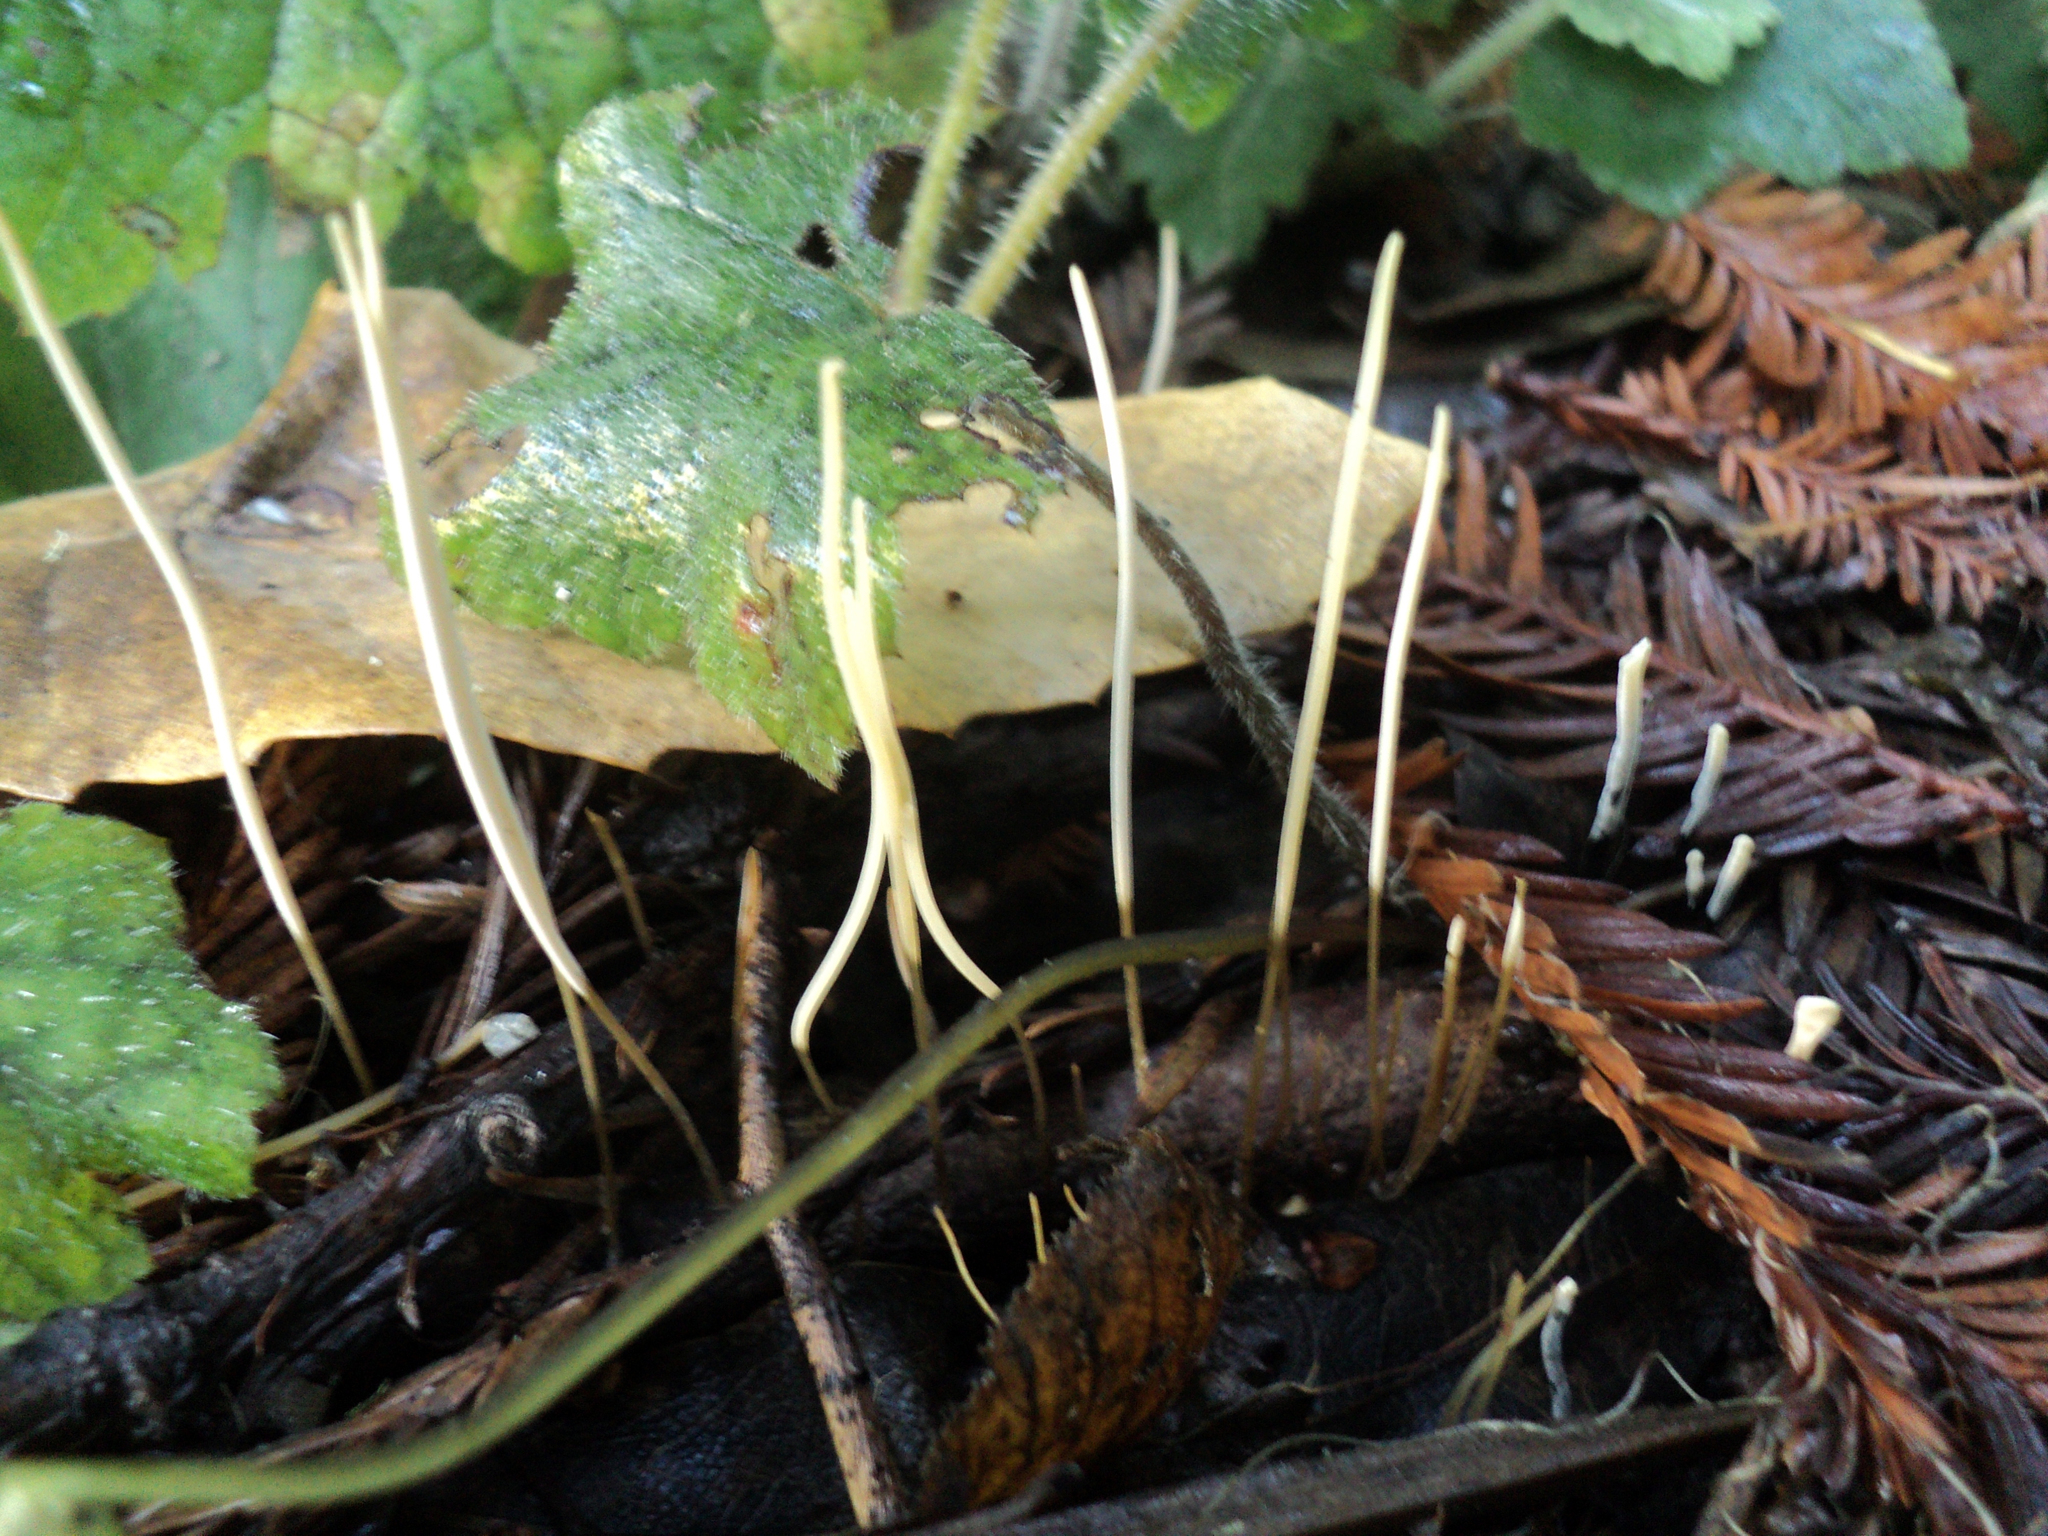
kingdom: Fungi
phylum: Basidiomycota
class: Agaricomycetes
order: Agaricales
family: Typhulaceae
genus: Typhula
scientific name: Typhula juncea
